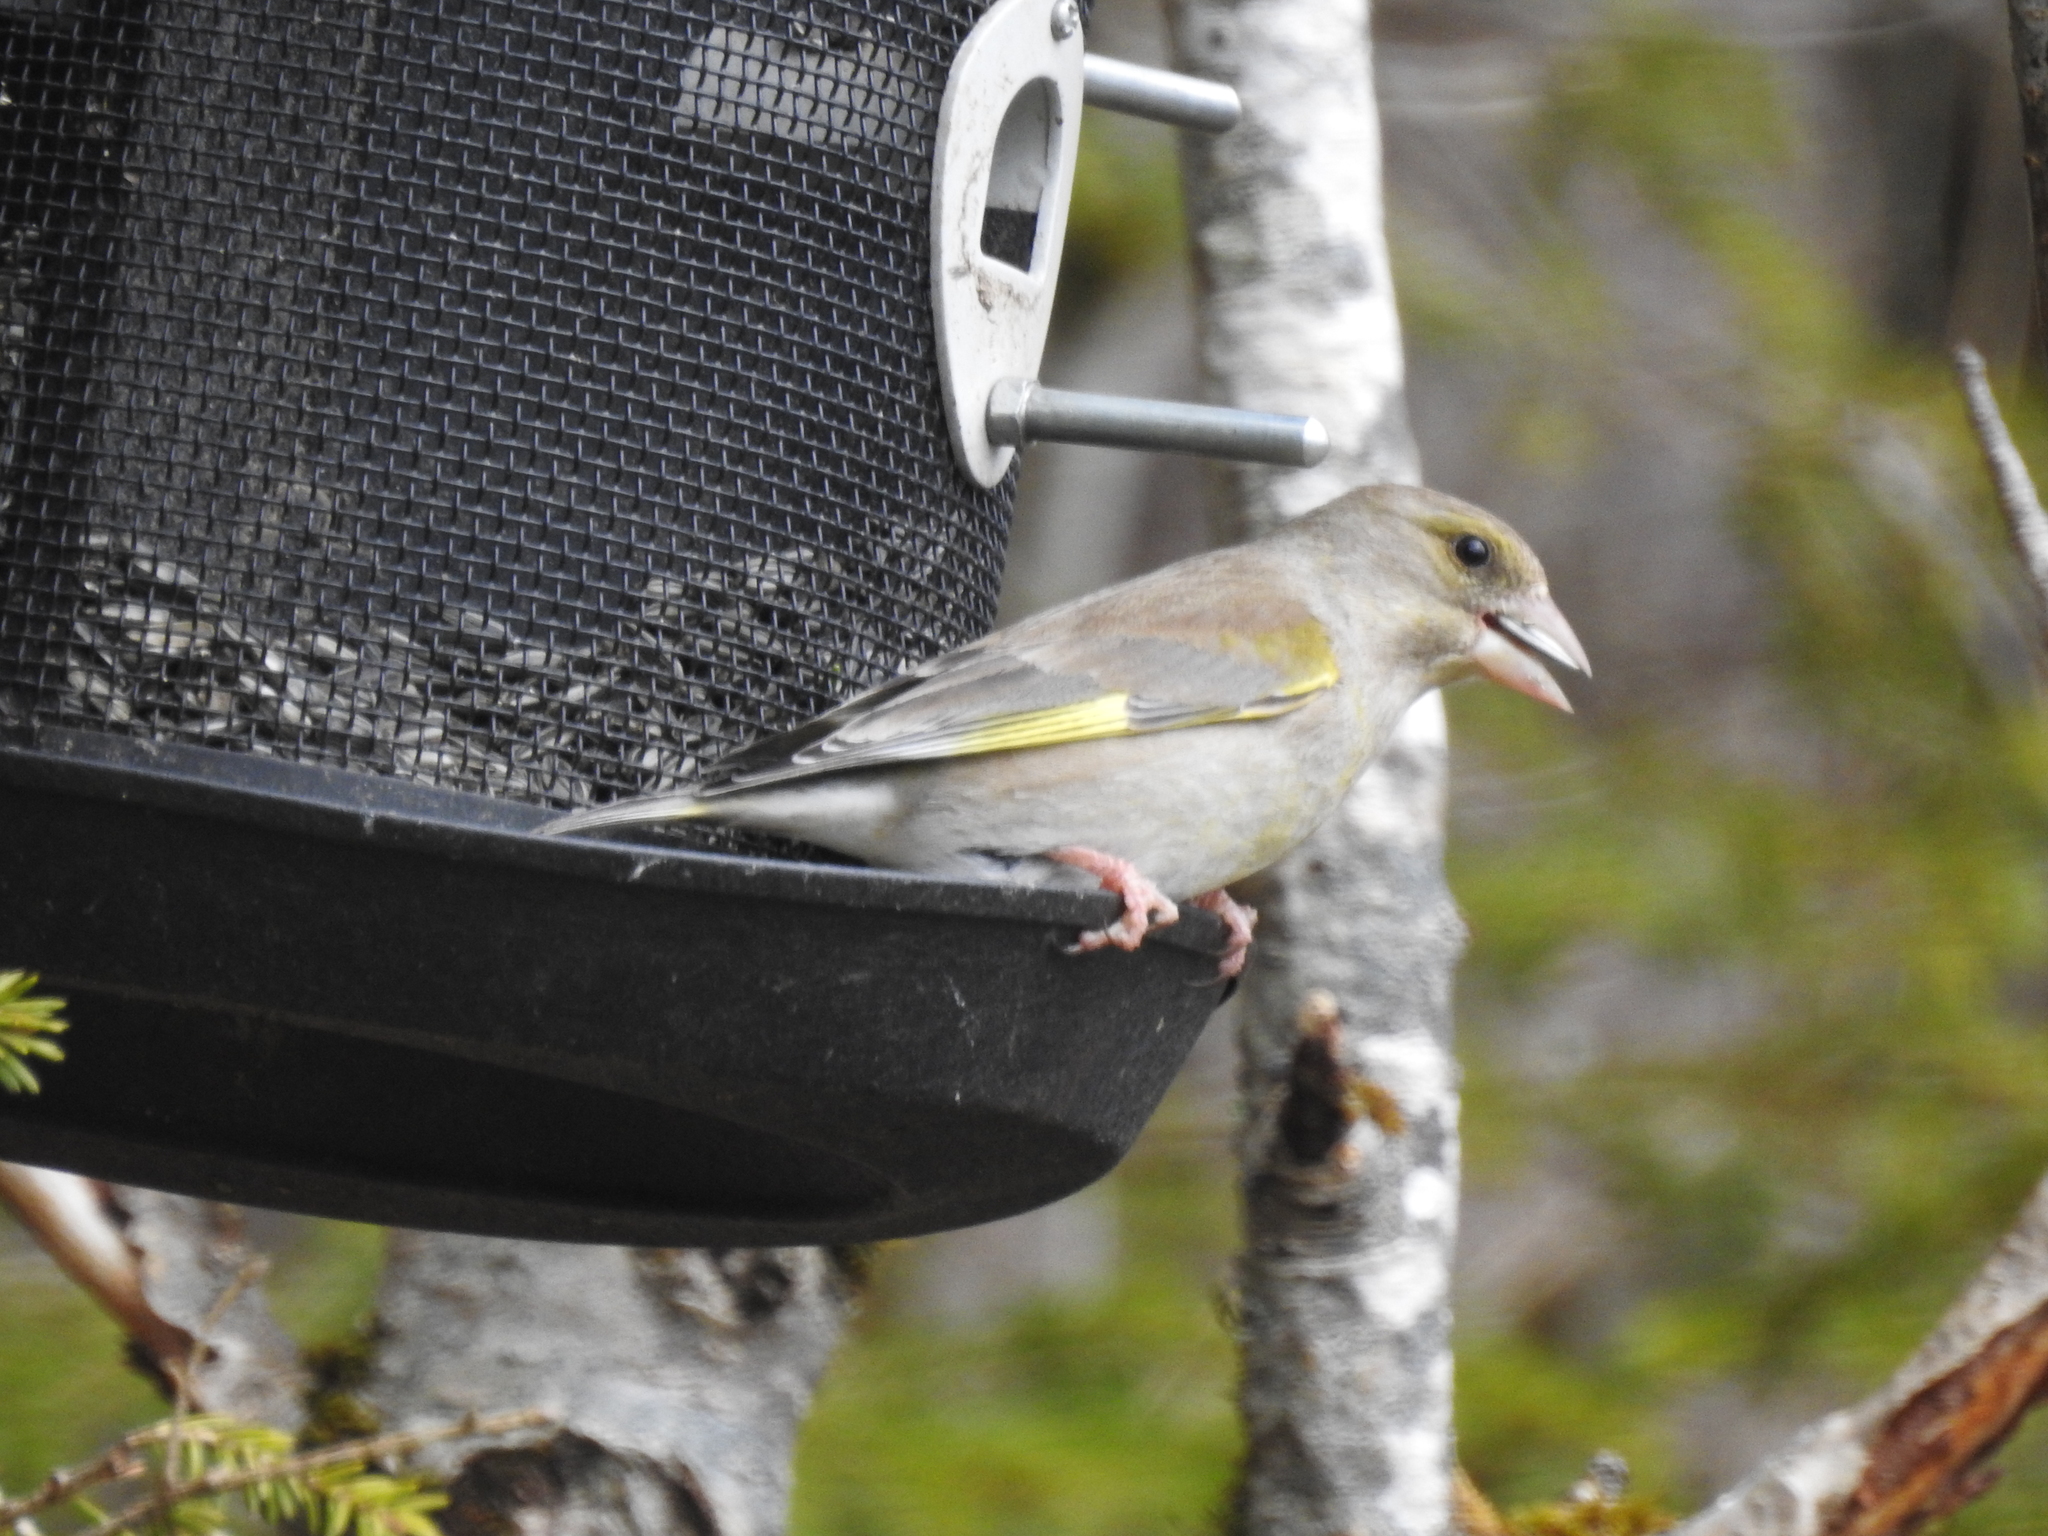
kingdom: Plantae
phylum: Tracheophyta
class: Liliopsida
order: Poales
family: Poaceae
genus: Chloris
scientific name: Chloris chloris
